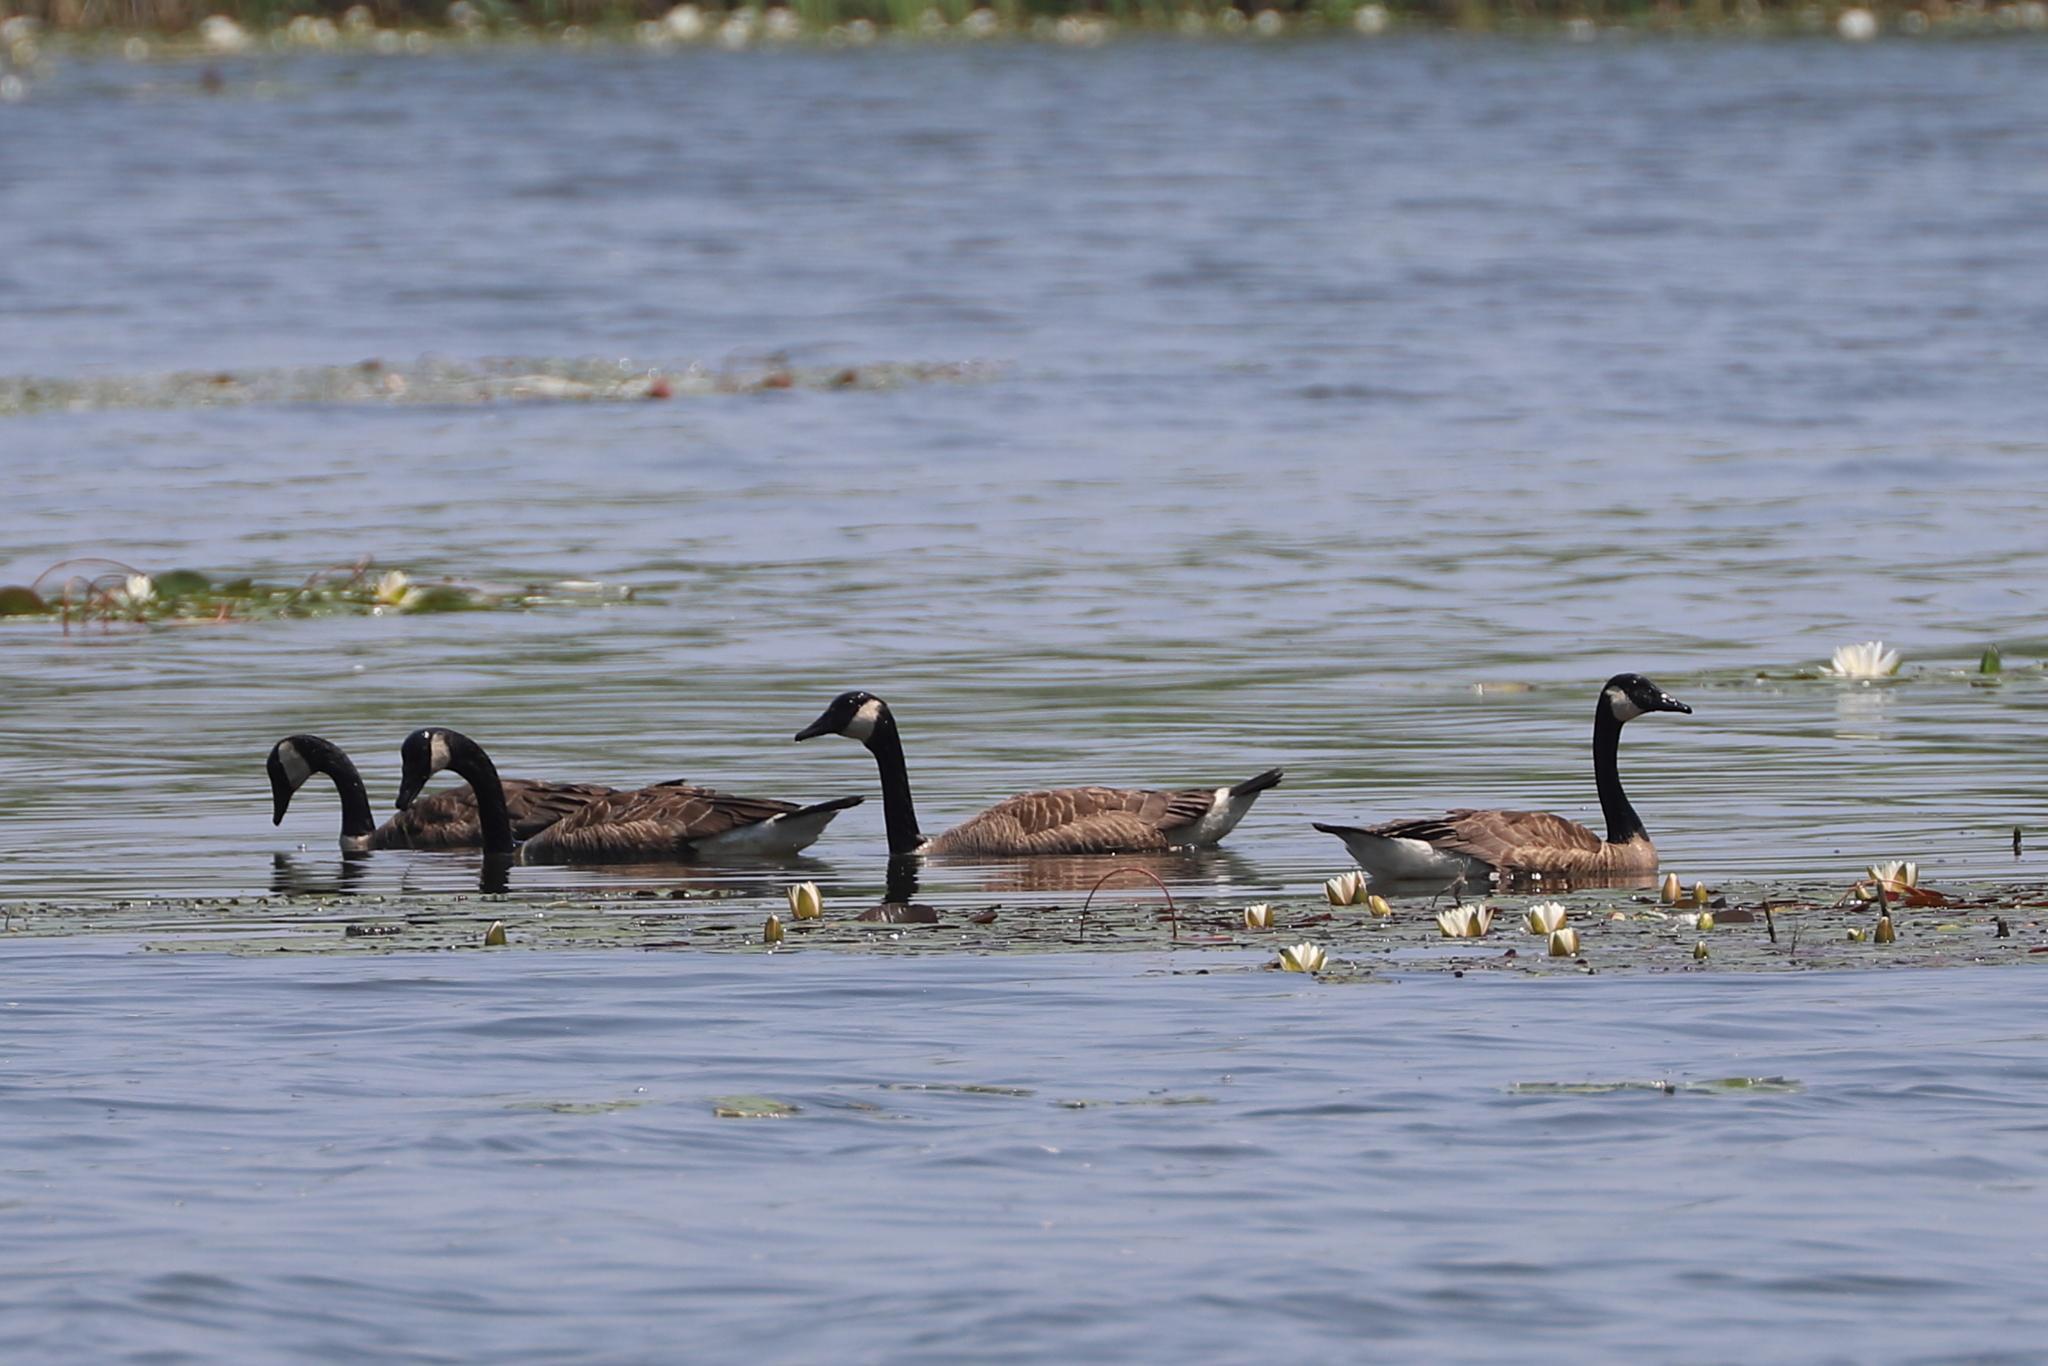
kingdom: Animalia
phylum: Chordata
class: Aves
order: Anseriformes
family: Anatidae
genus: Branta
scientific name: Branta canadensis
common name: Canada goose
